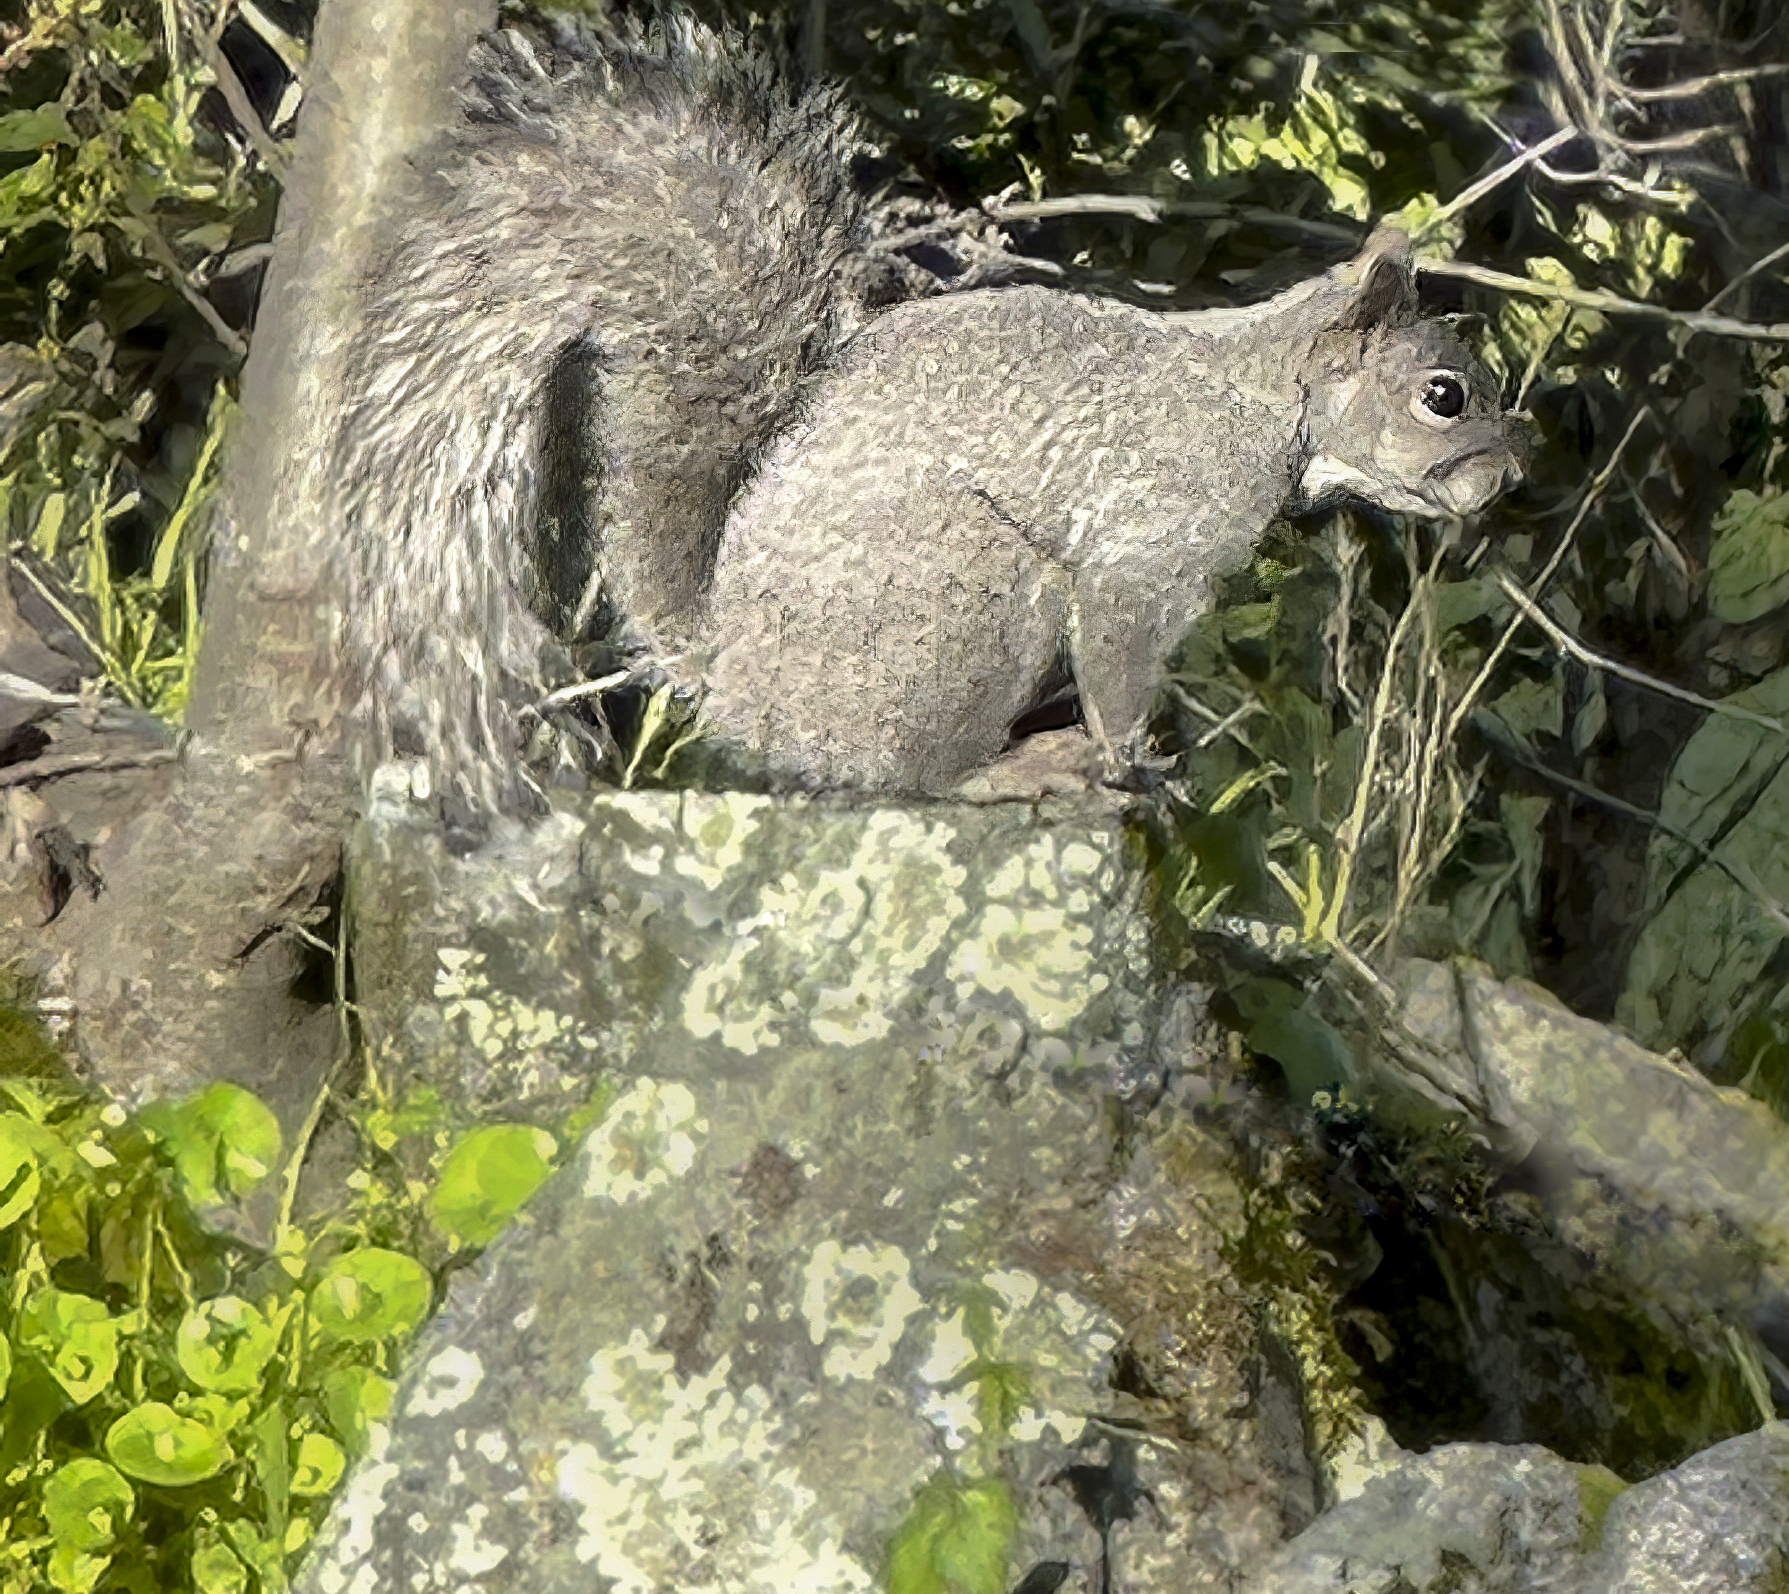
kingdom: Animalia
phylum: Chordata
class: Mammalia
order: Rodentia
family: Sciuridae
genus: Sciurus
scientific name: Sciurus griseus
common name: Western gray squirrel
